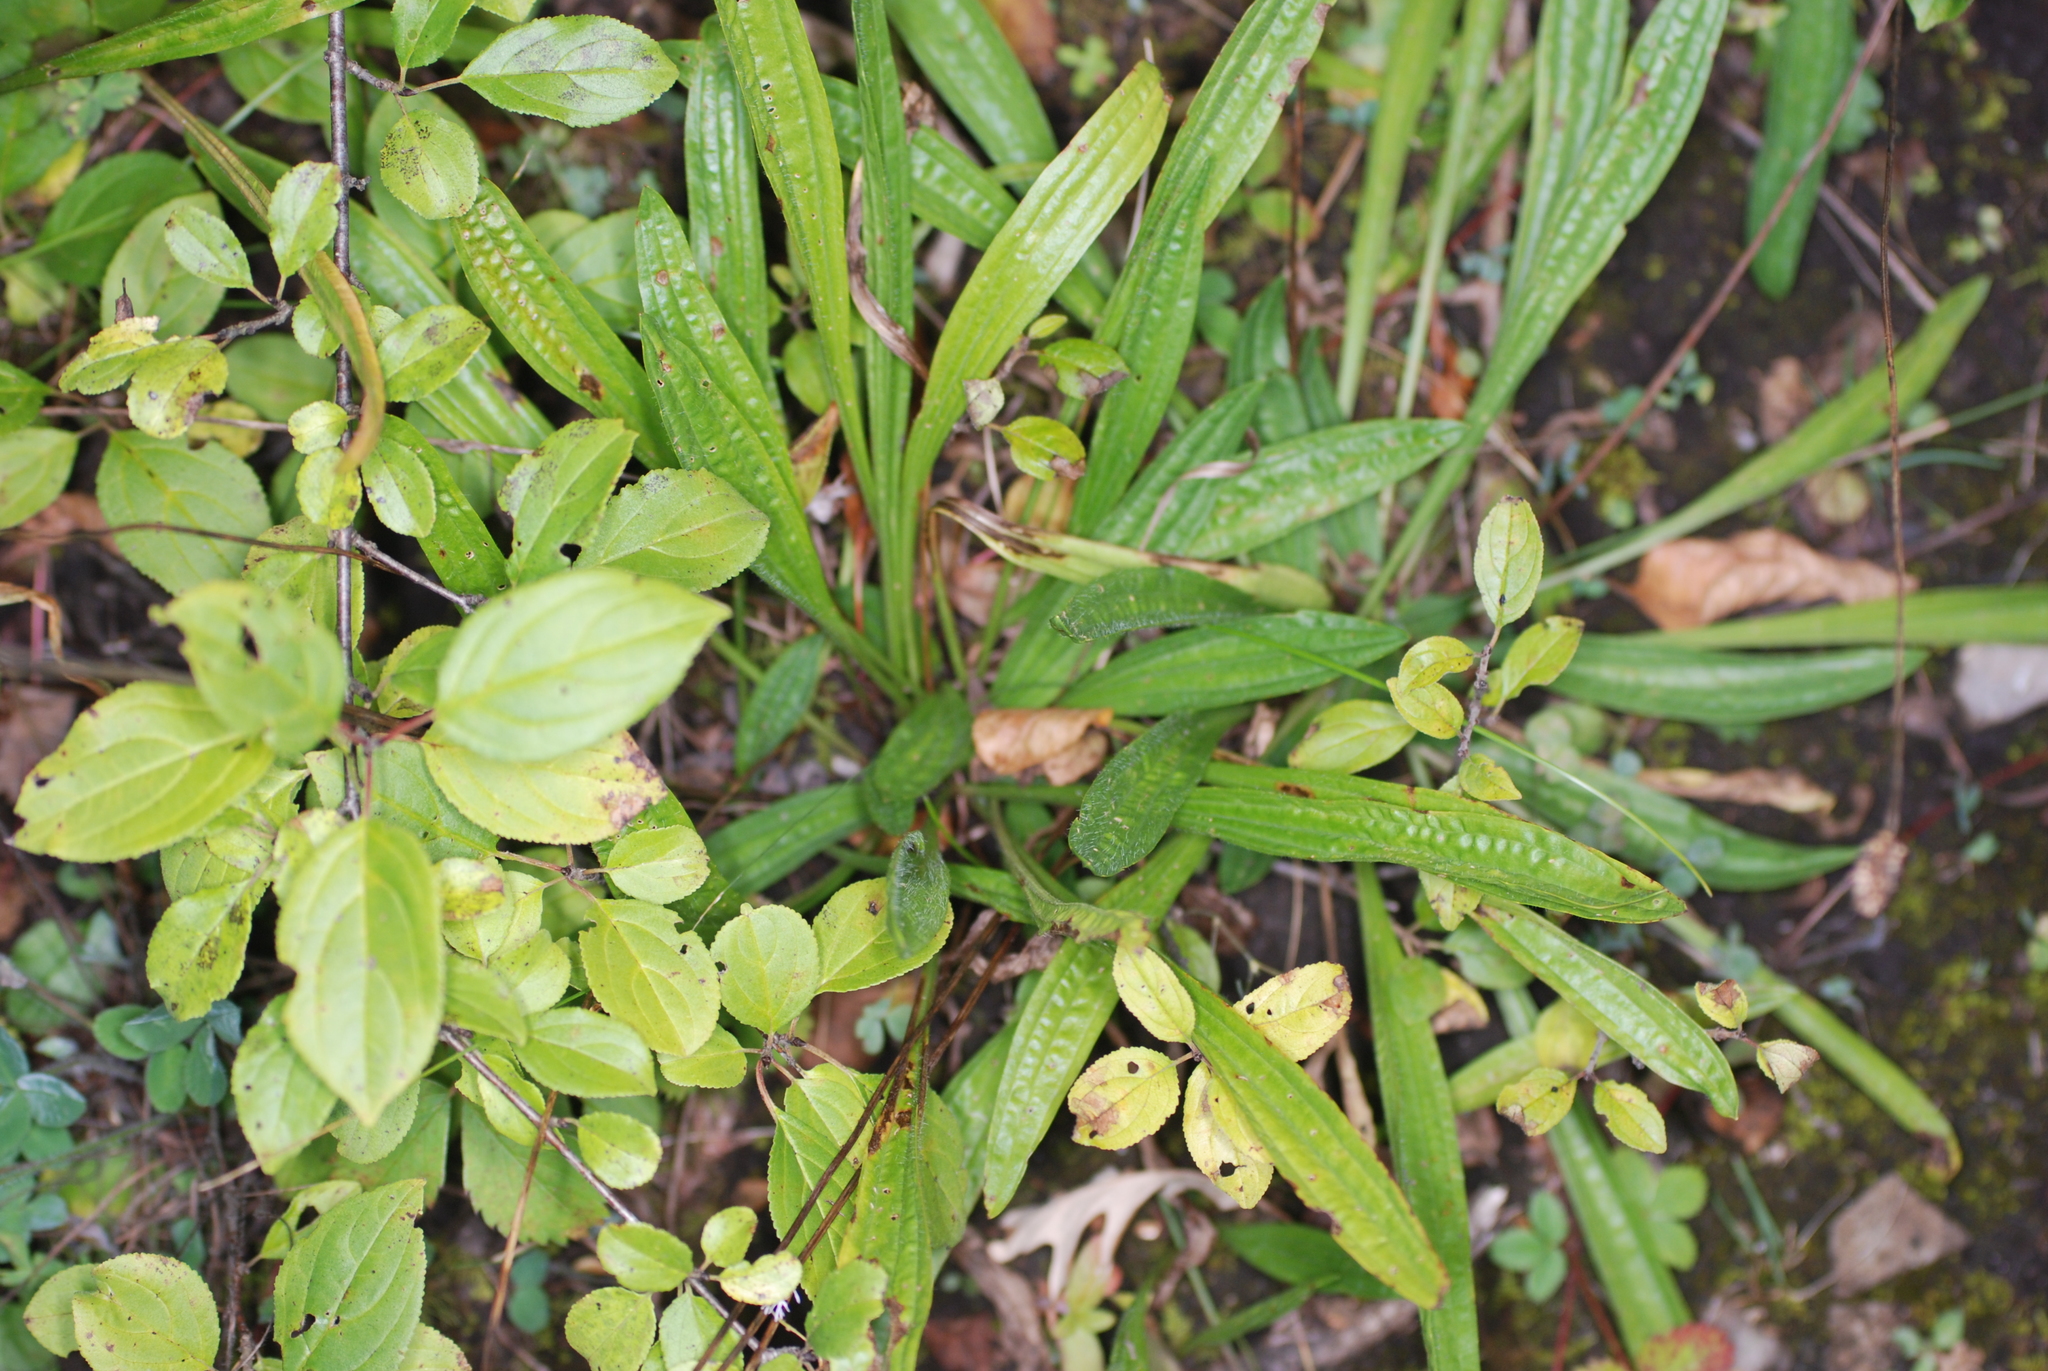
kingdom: Plantae
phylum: Tracheophyta
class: Magnoliopsida
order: Lamiales
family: Plantaginaceae
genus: Plantago
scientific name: Plantago lanceolata
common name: Ribwort plantain
